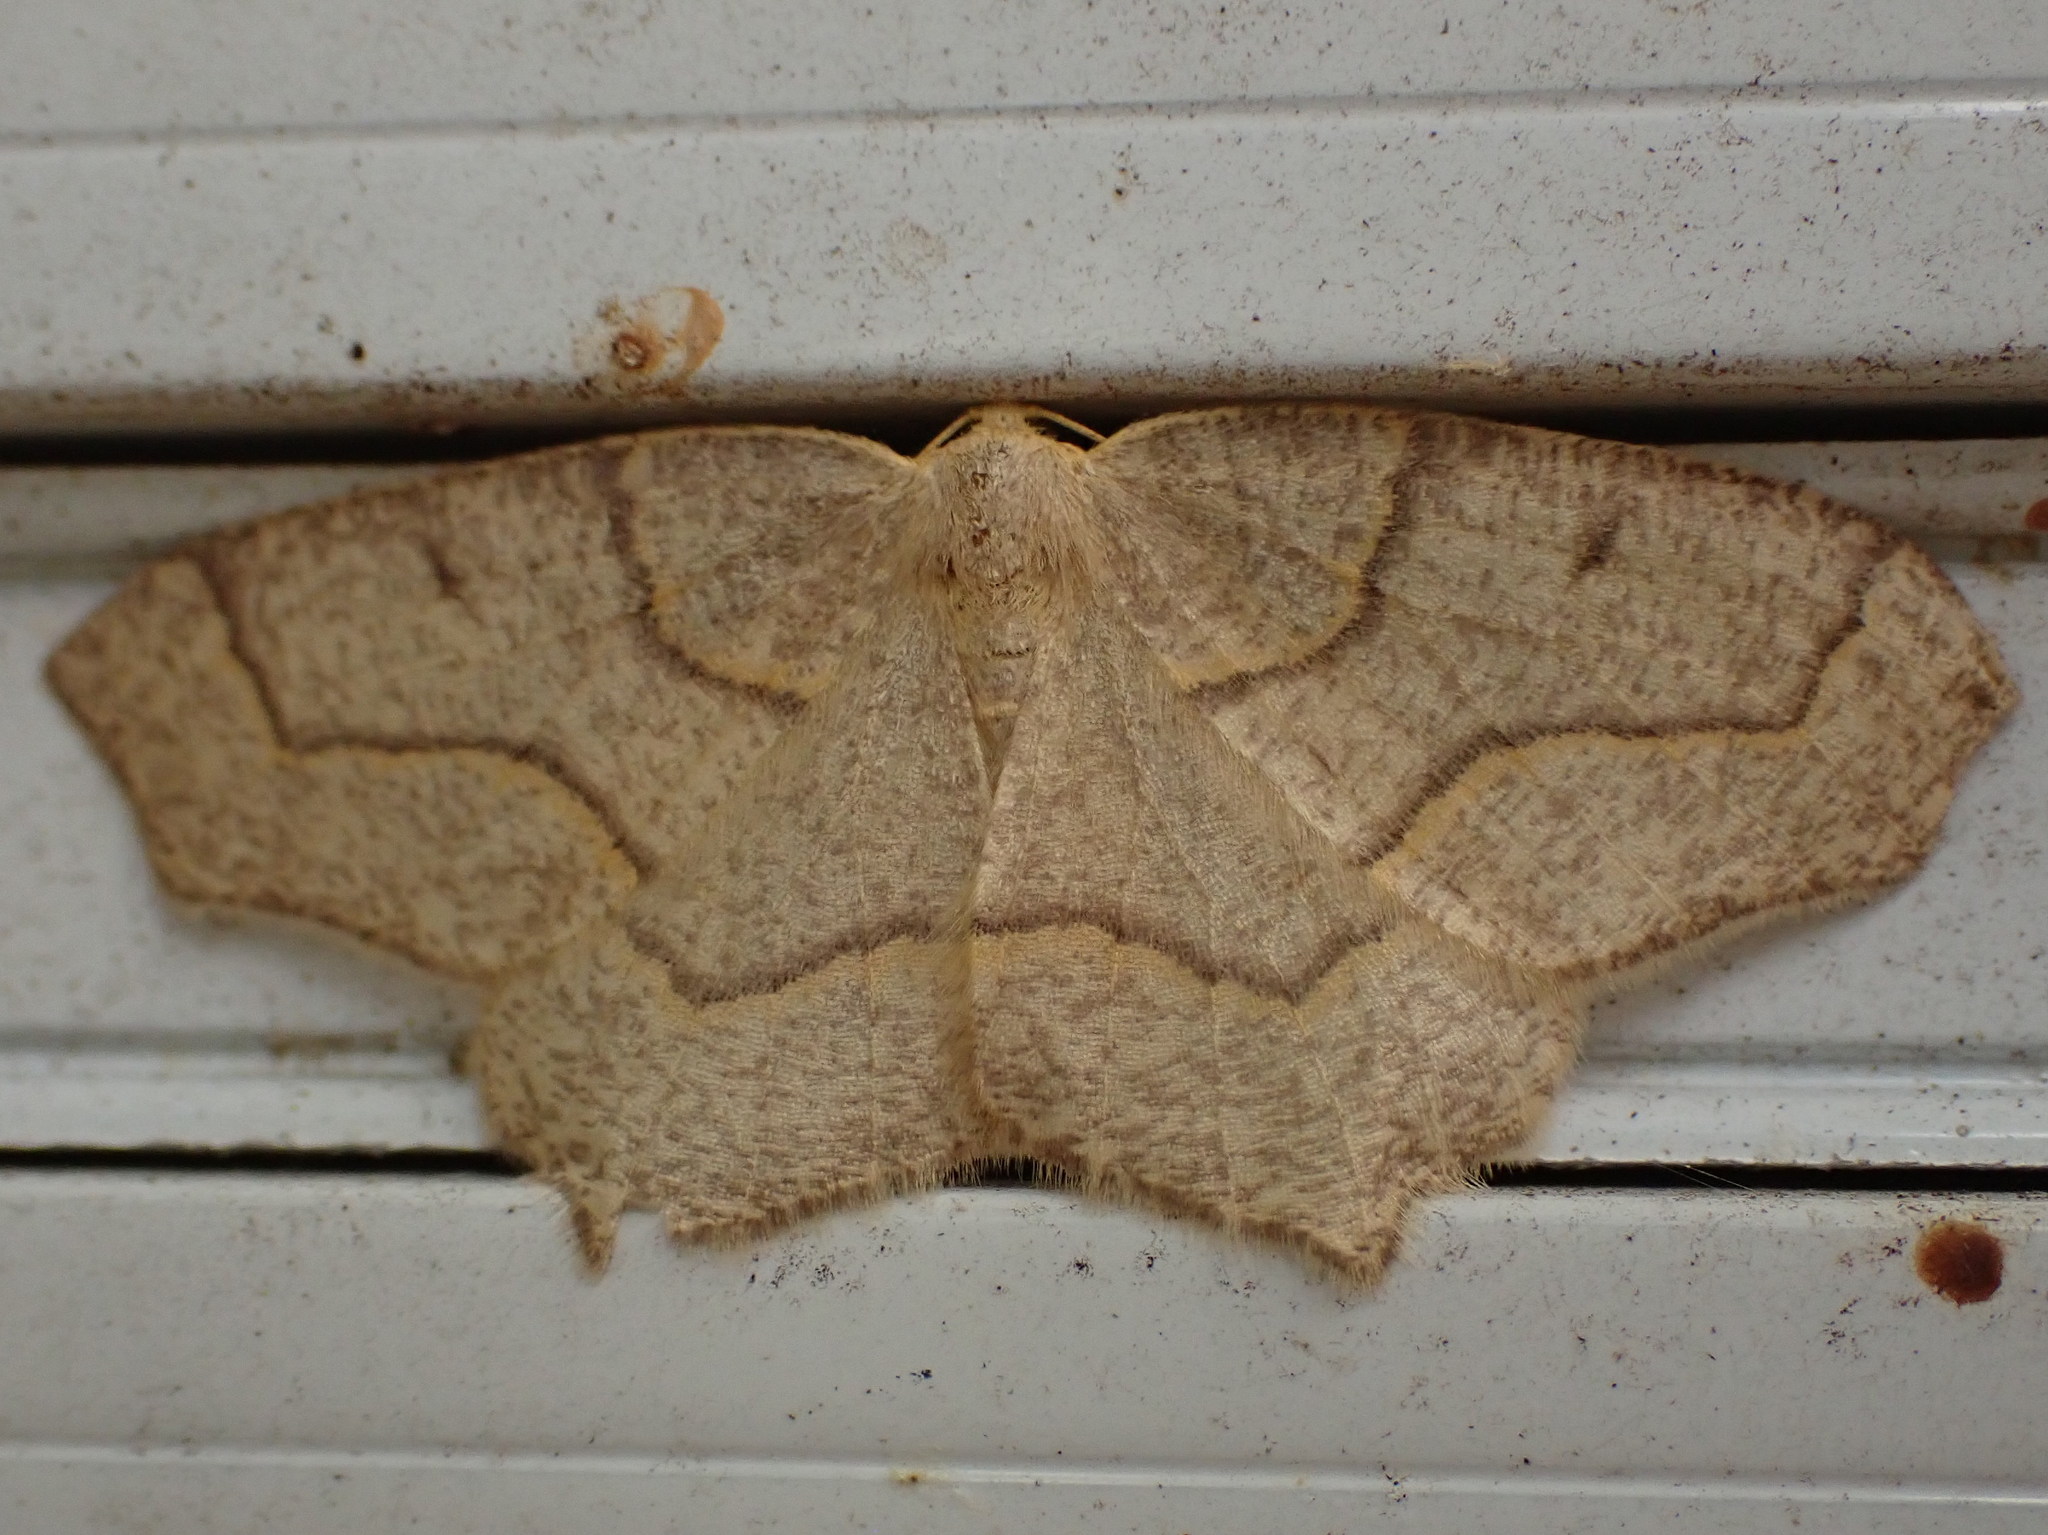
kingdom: Animalia
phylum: Arthropoda
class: Insecta
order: Lepidoptera
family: Geometridae
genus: Lambdina
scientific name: Lambdina fiscellaria
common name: Hemlock looper
